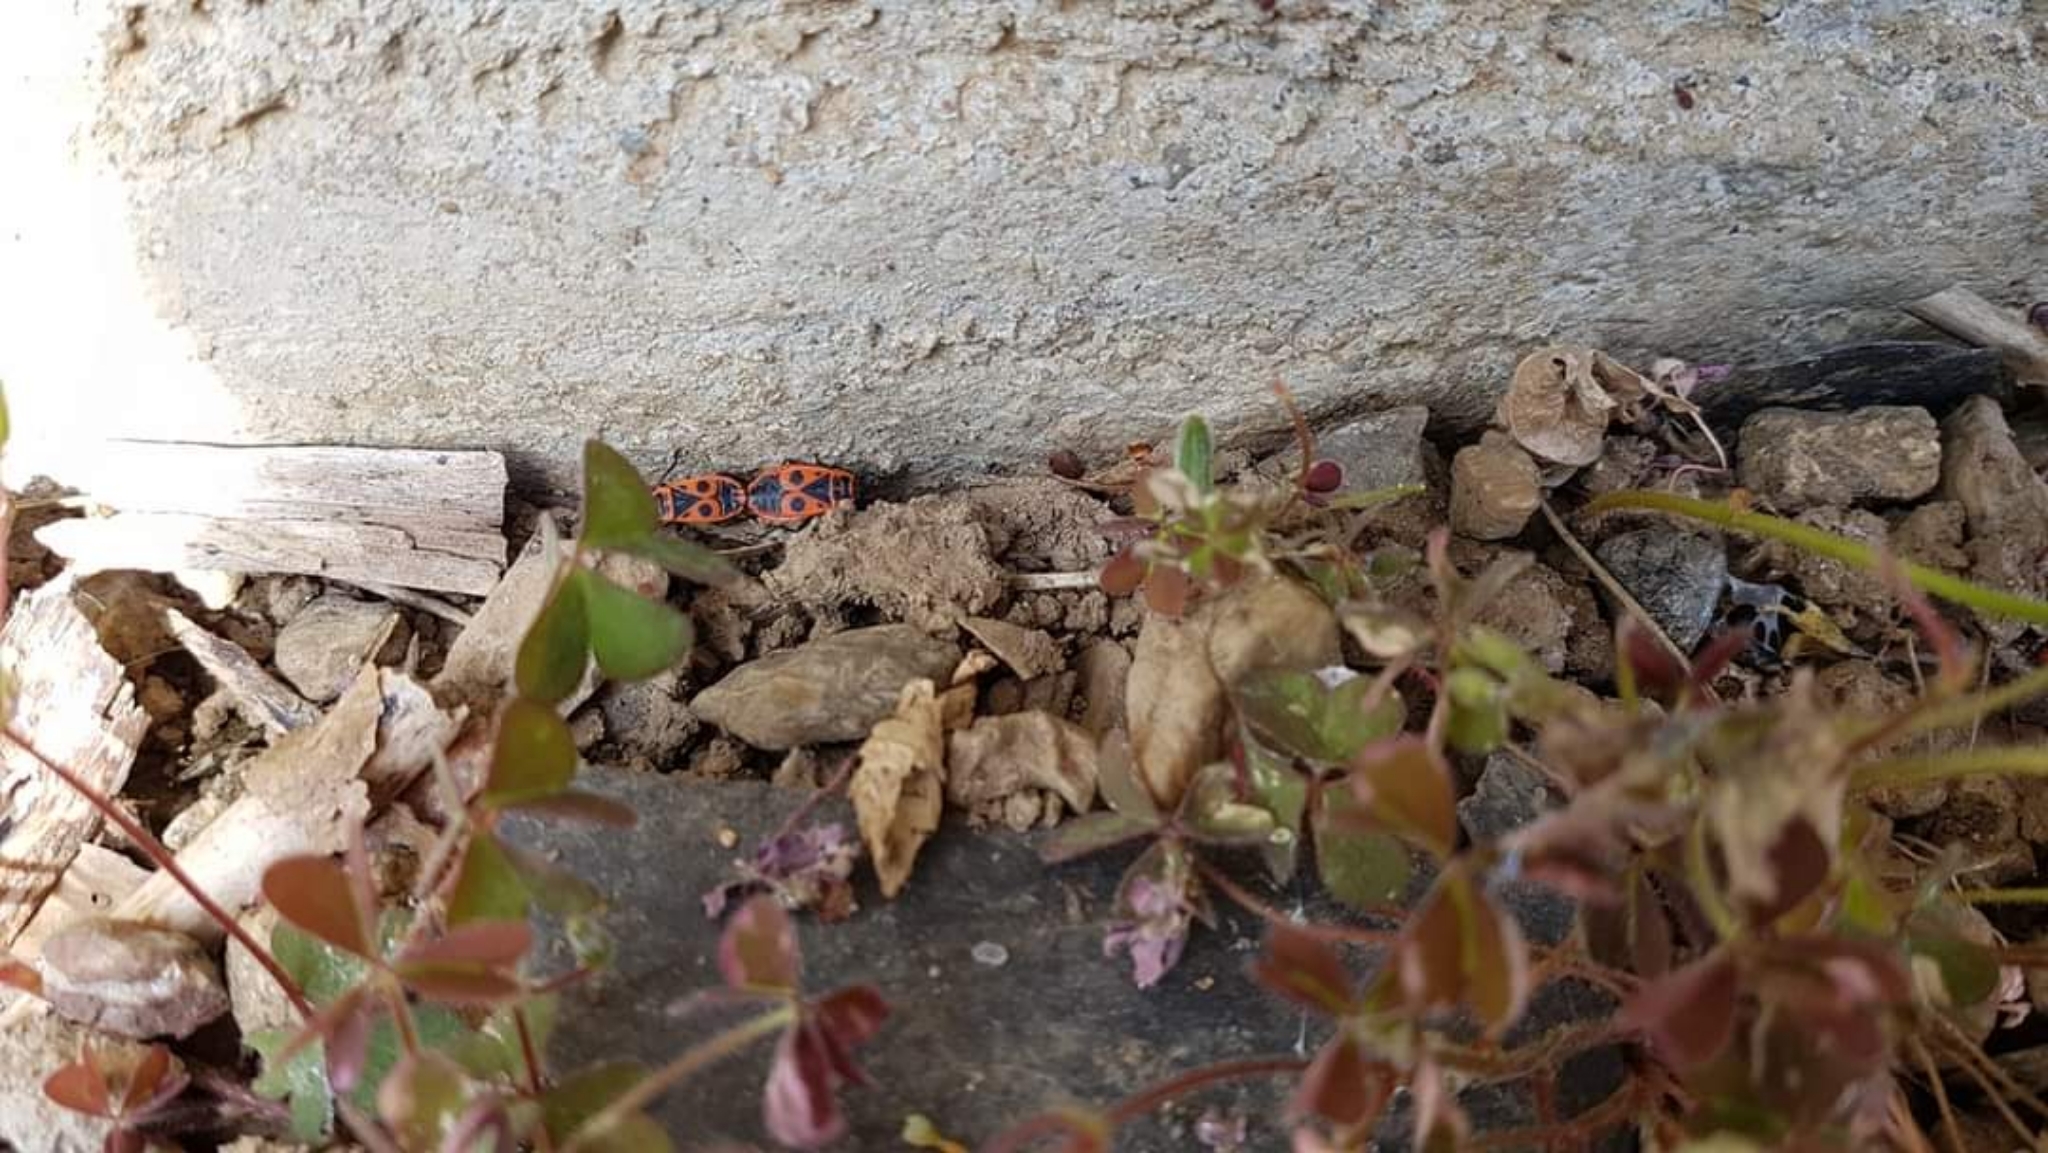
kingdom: Animalia
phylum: Arthropoda
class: Insecta
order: Hemiptera
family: Pyrrhocoridae
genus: Pyrrhocoris
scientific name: Pyrrhocoris apterus
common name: Firebug
